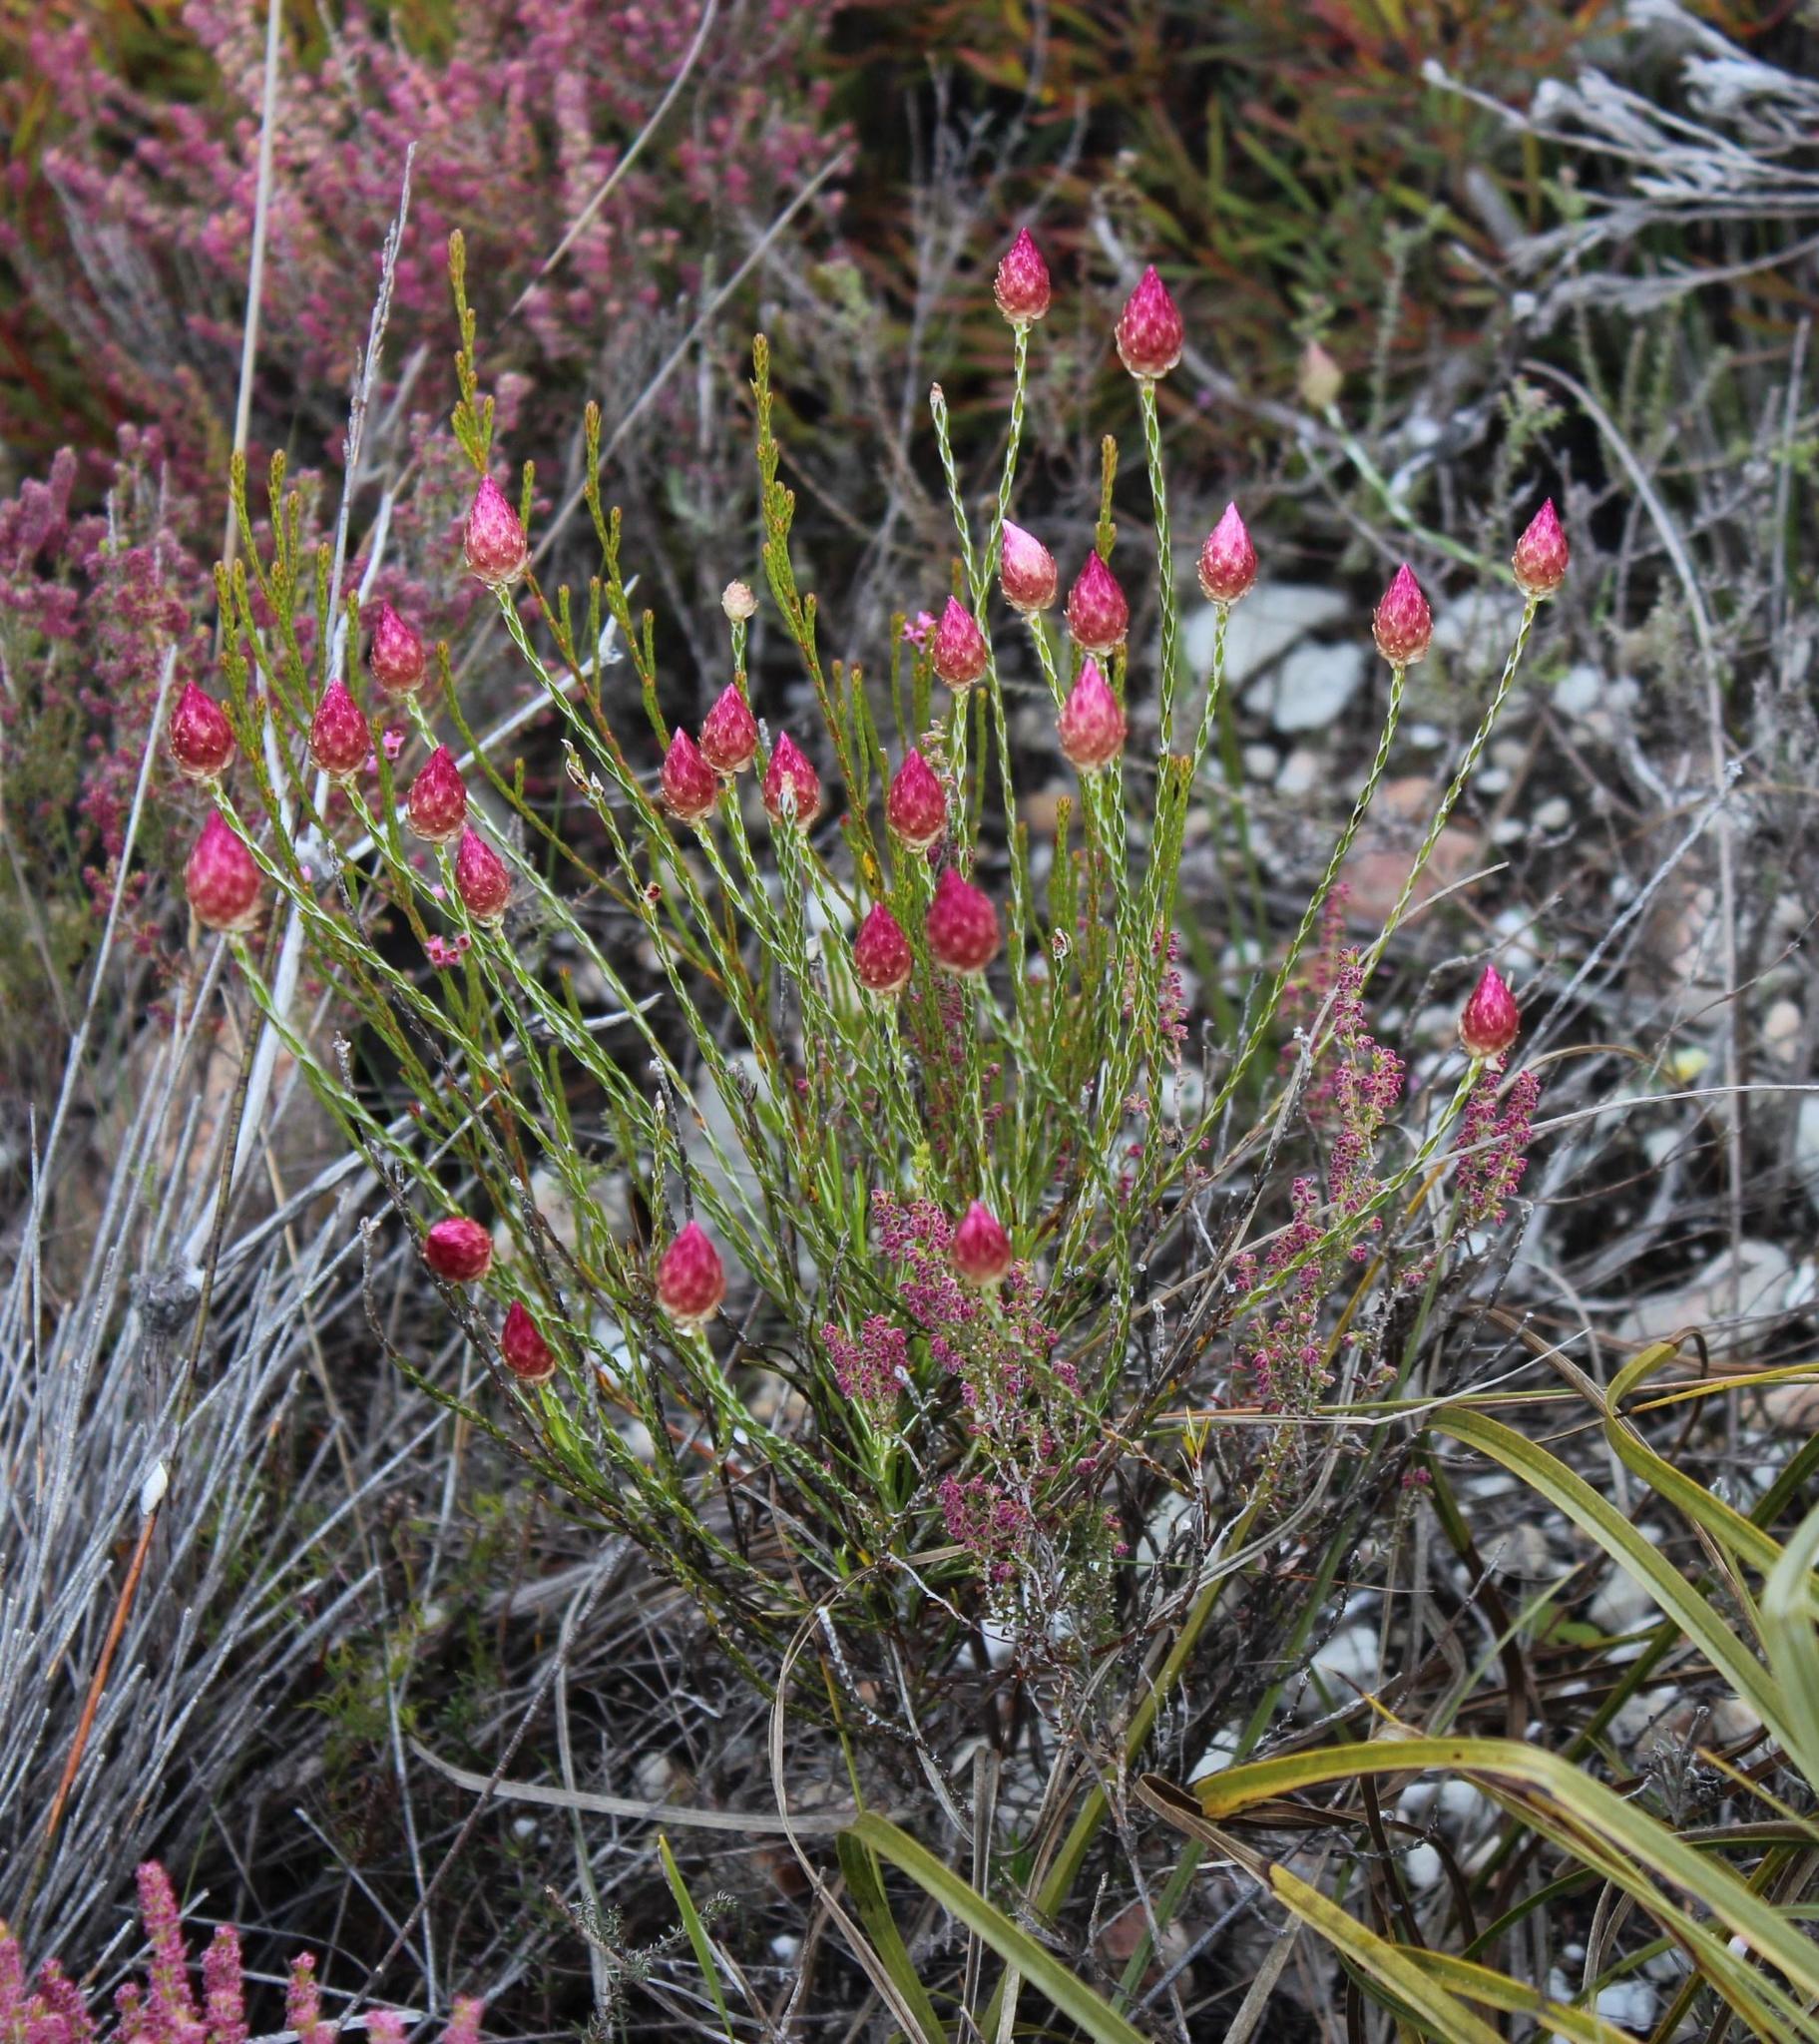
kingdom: Plantae
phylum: Tracheophyta
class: Magnoliopsida
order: Asterales
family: Asteraceae
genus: Edmondia
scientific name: Edmondia sesamoides
